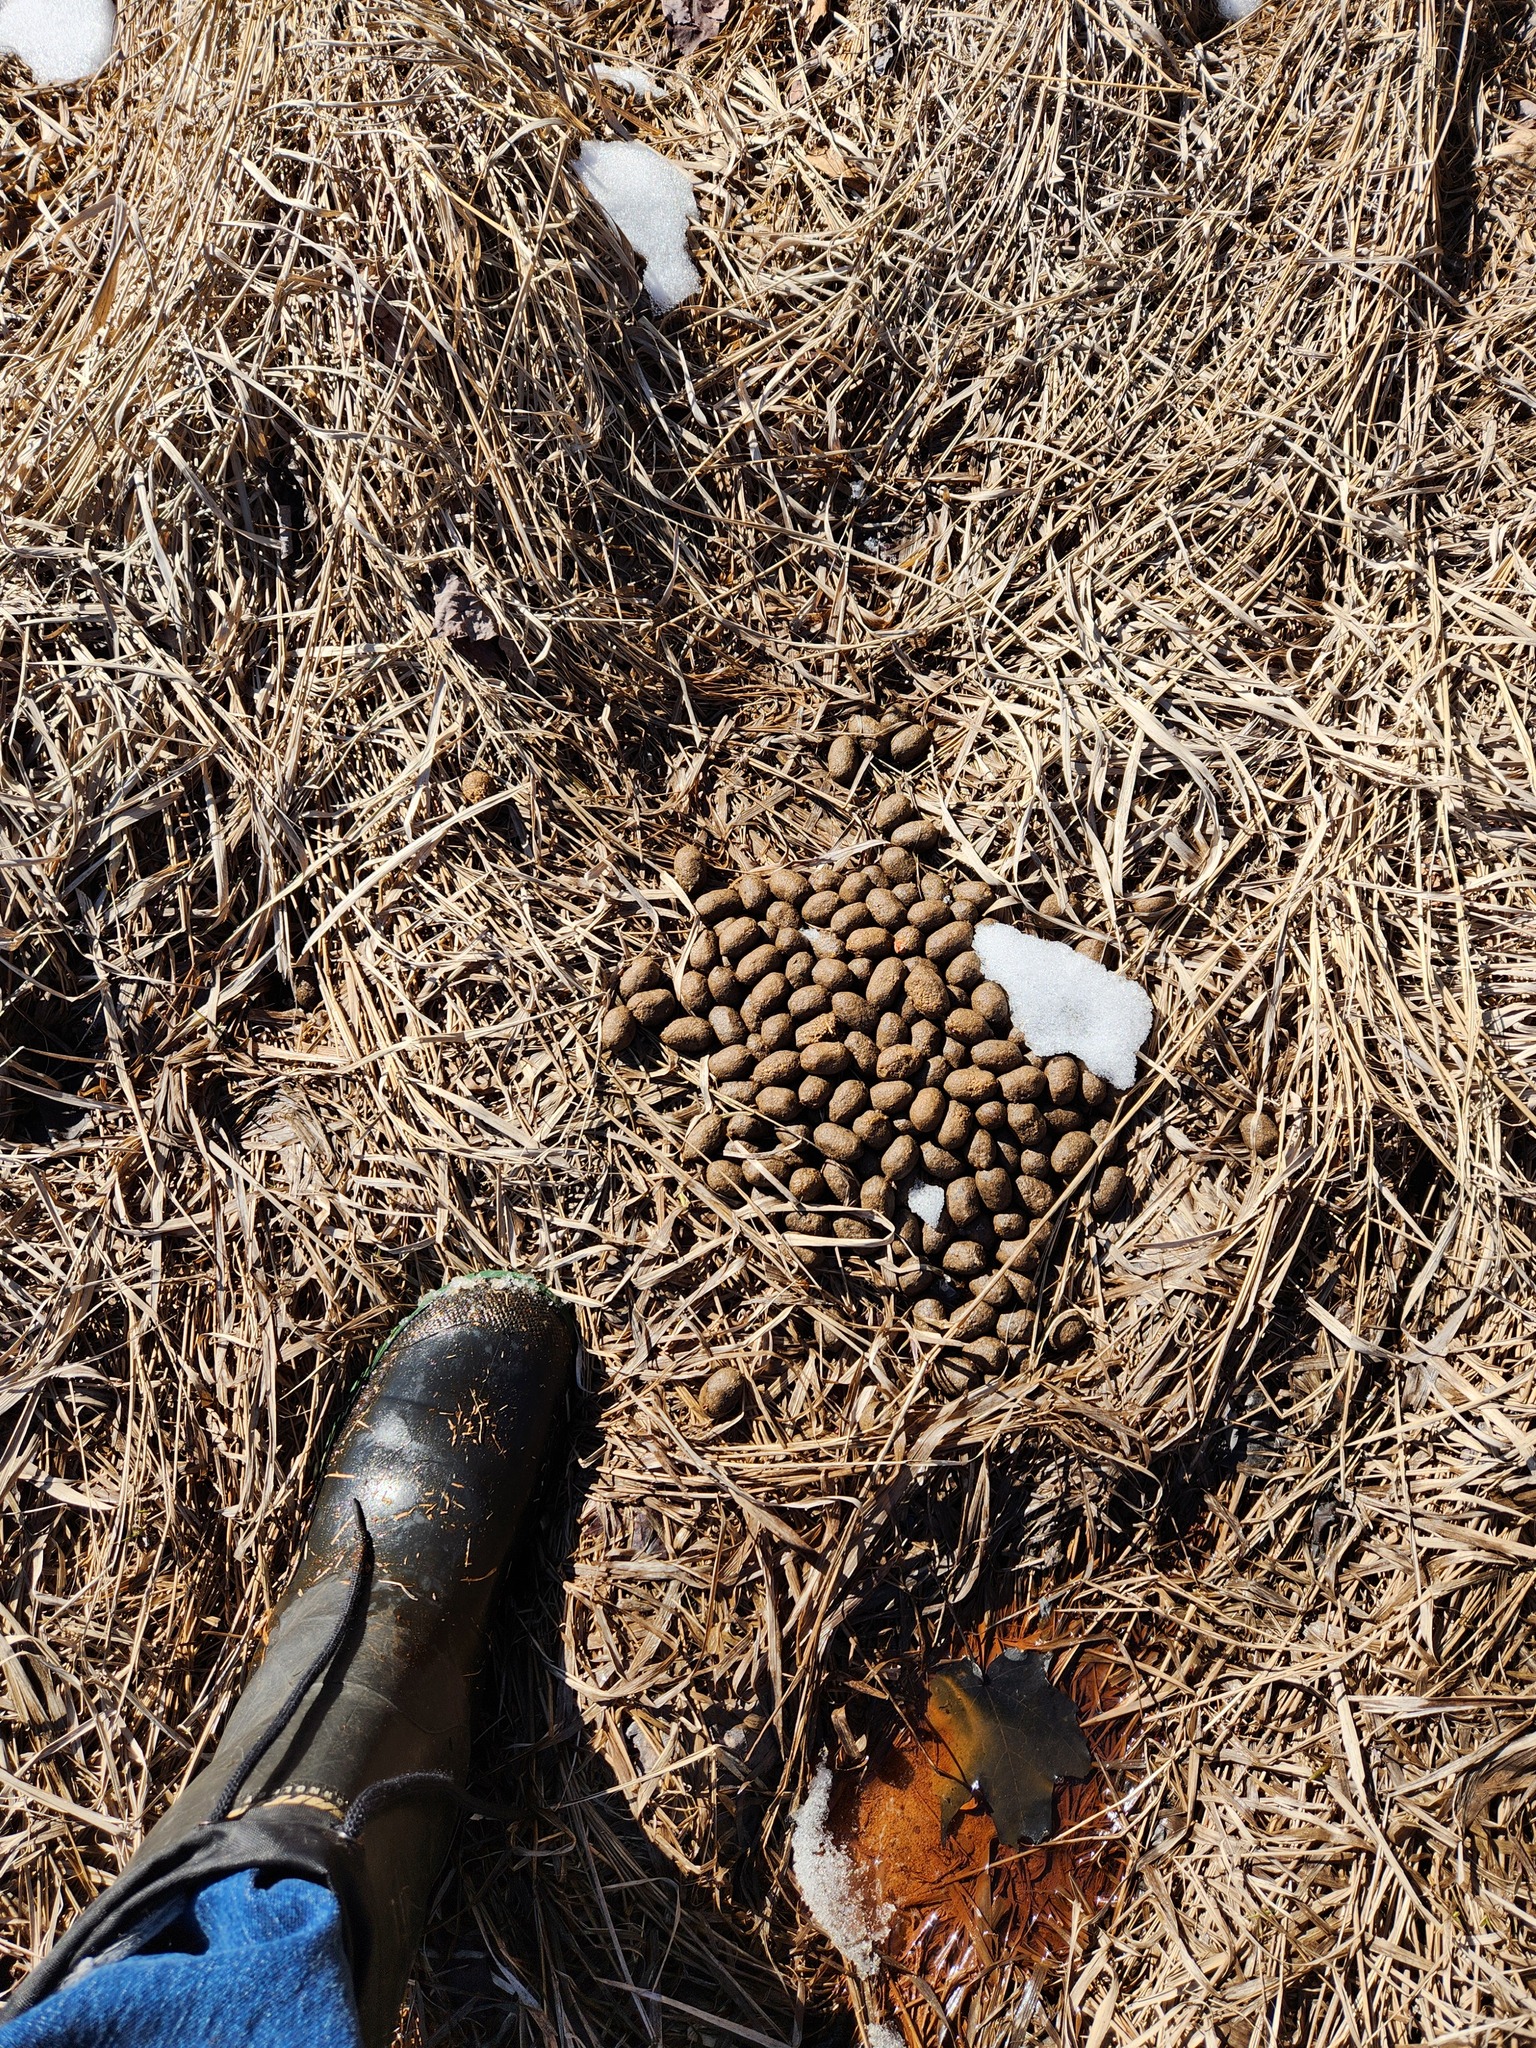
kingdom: Animalia
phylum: Chordata
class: Mammalia
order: Artiodactyla
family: Cervidae
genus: Alces
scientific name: Alces alces
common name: Moose
